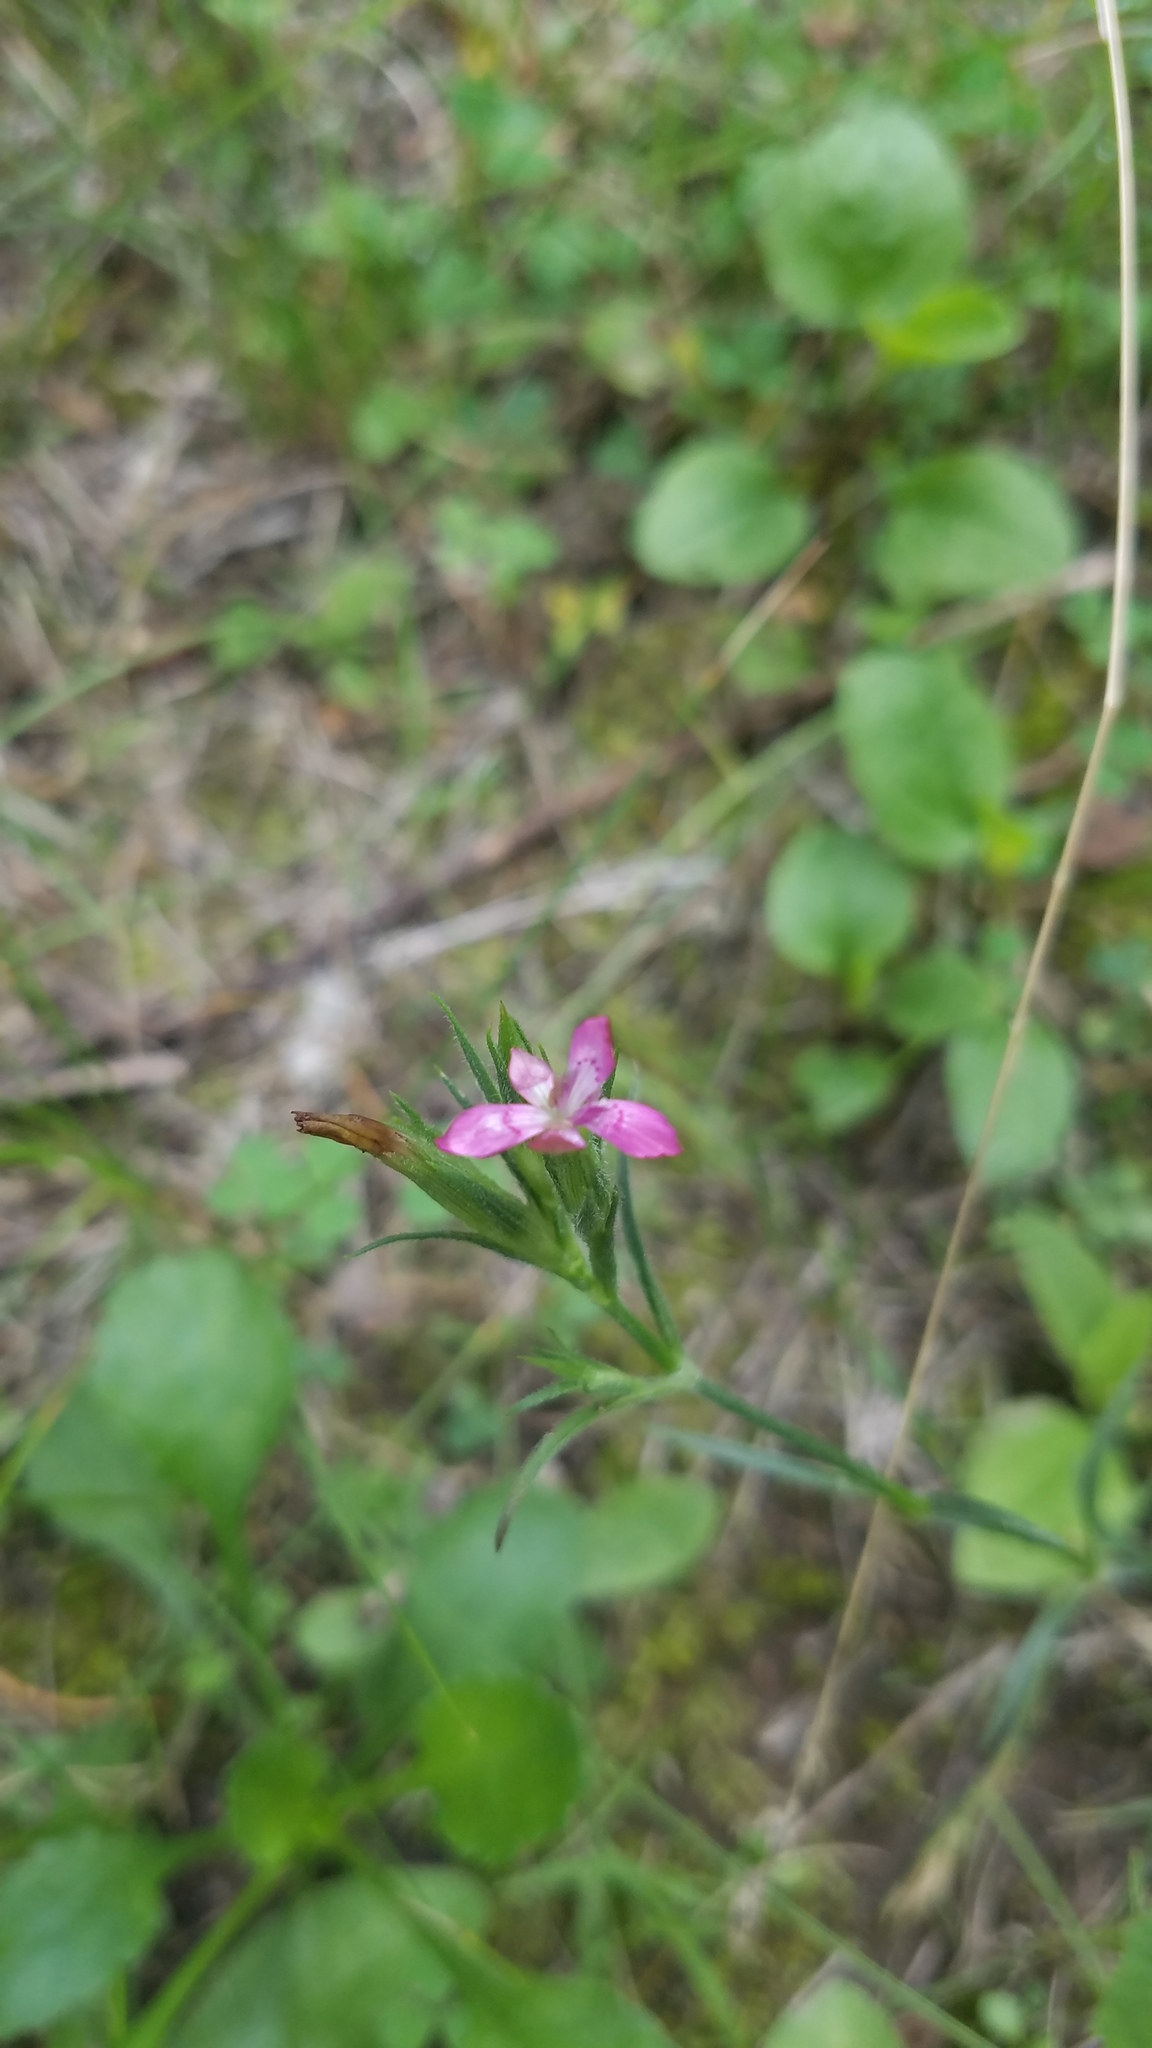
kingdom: Plantae
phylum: Tracheophyta
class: Magnoliopsida
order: Caryophyllales
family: Caryophyllaceae
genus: Dianthus
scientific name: Dianthus armeria
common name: Deptford pink
